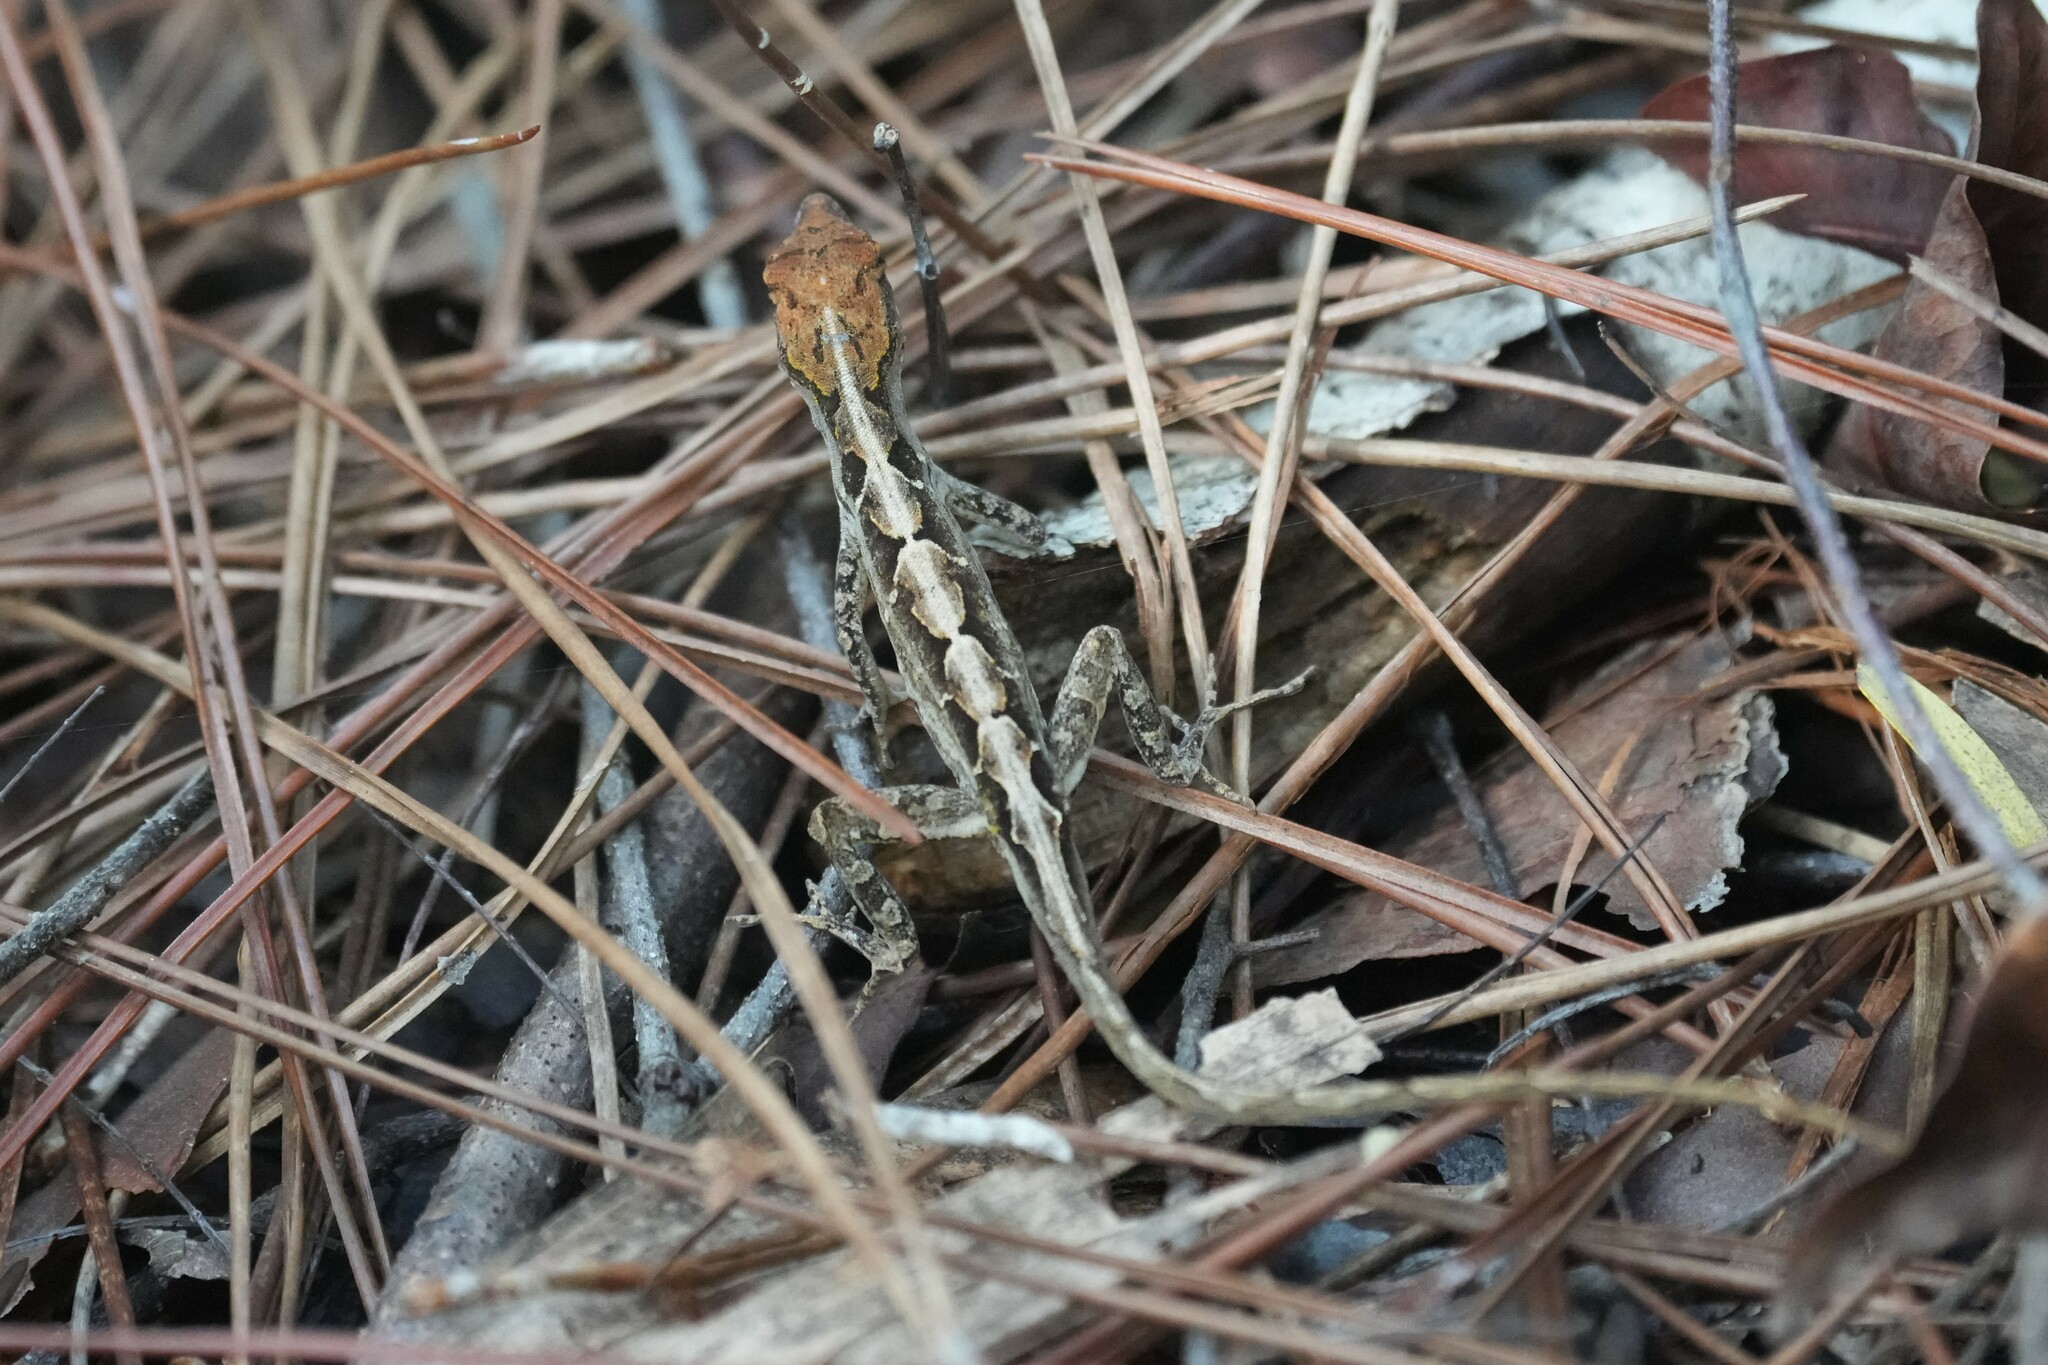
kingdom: Animalia
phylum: Chordata
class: Squamata
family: Dactyloidae
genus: Anolis
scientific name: Anolis sagrei
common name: Brown anole
